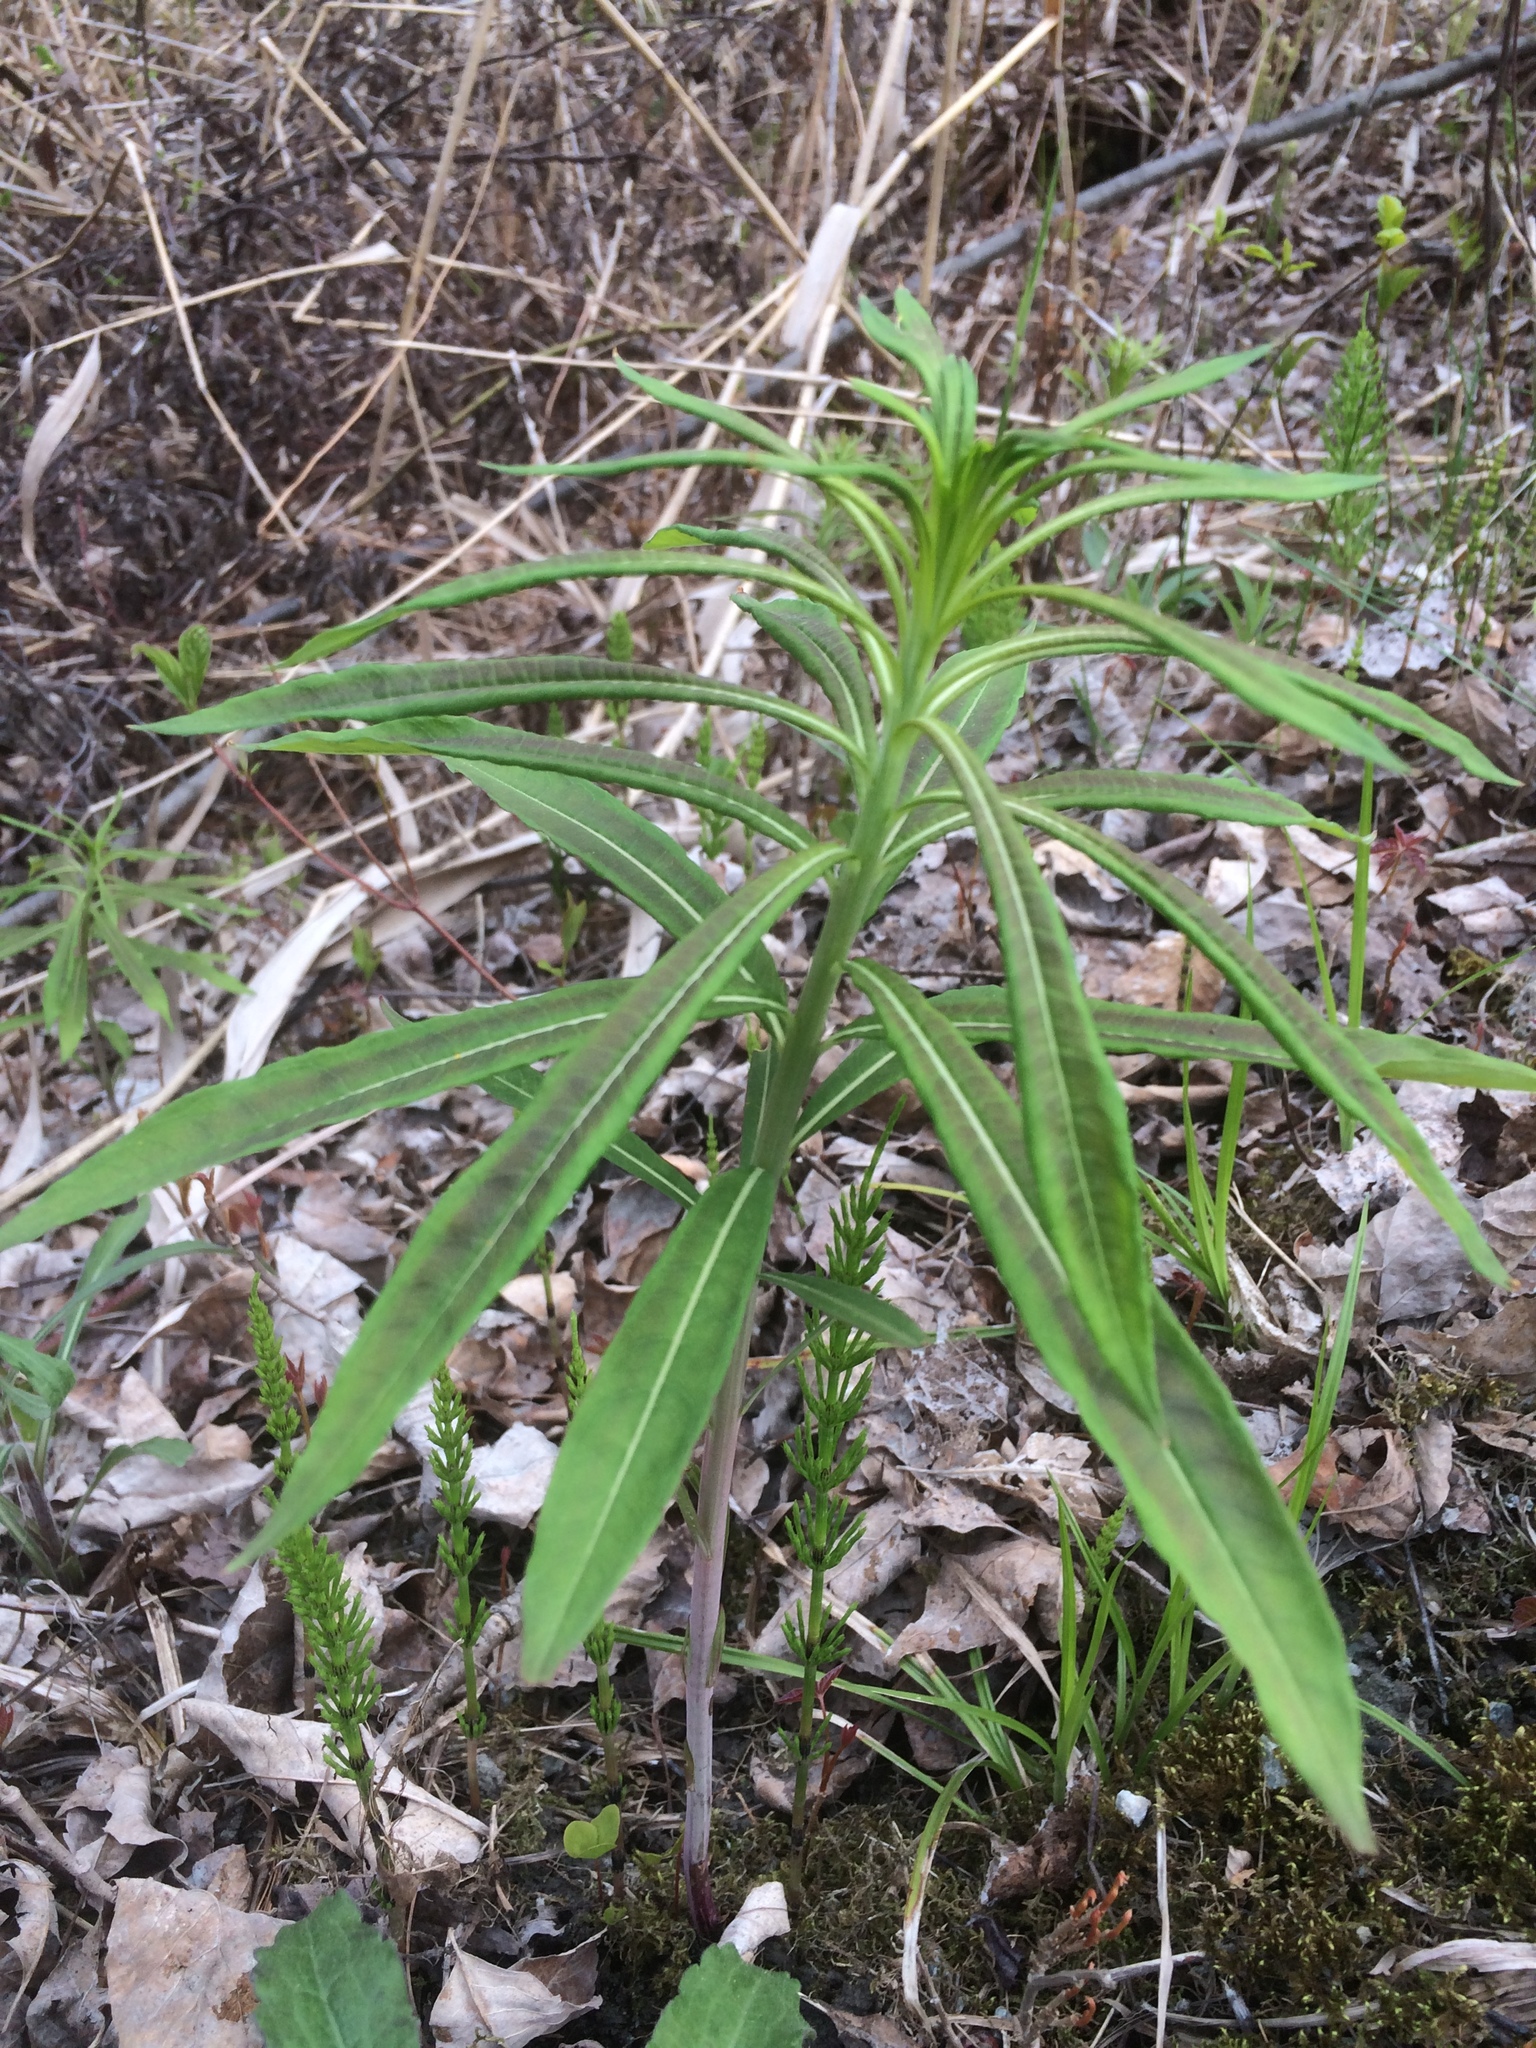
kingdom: Plantae
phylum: Tracheophyta
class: Magnoliopsida
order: Myrtales
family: Onagraceae
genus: Chamaenerion
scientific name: Chamaenerion angustifolium
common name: Fireweed
